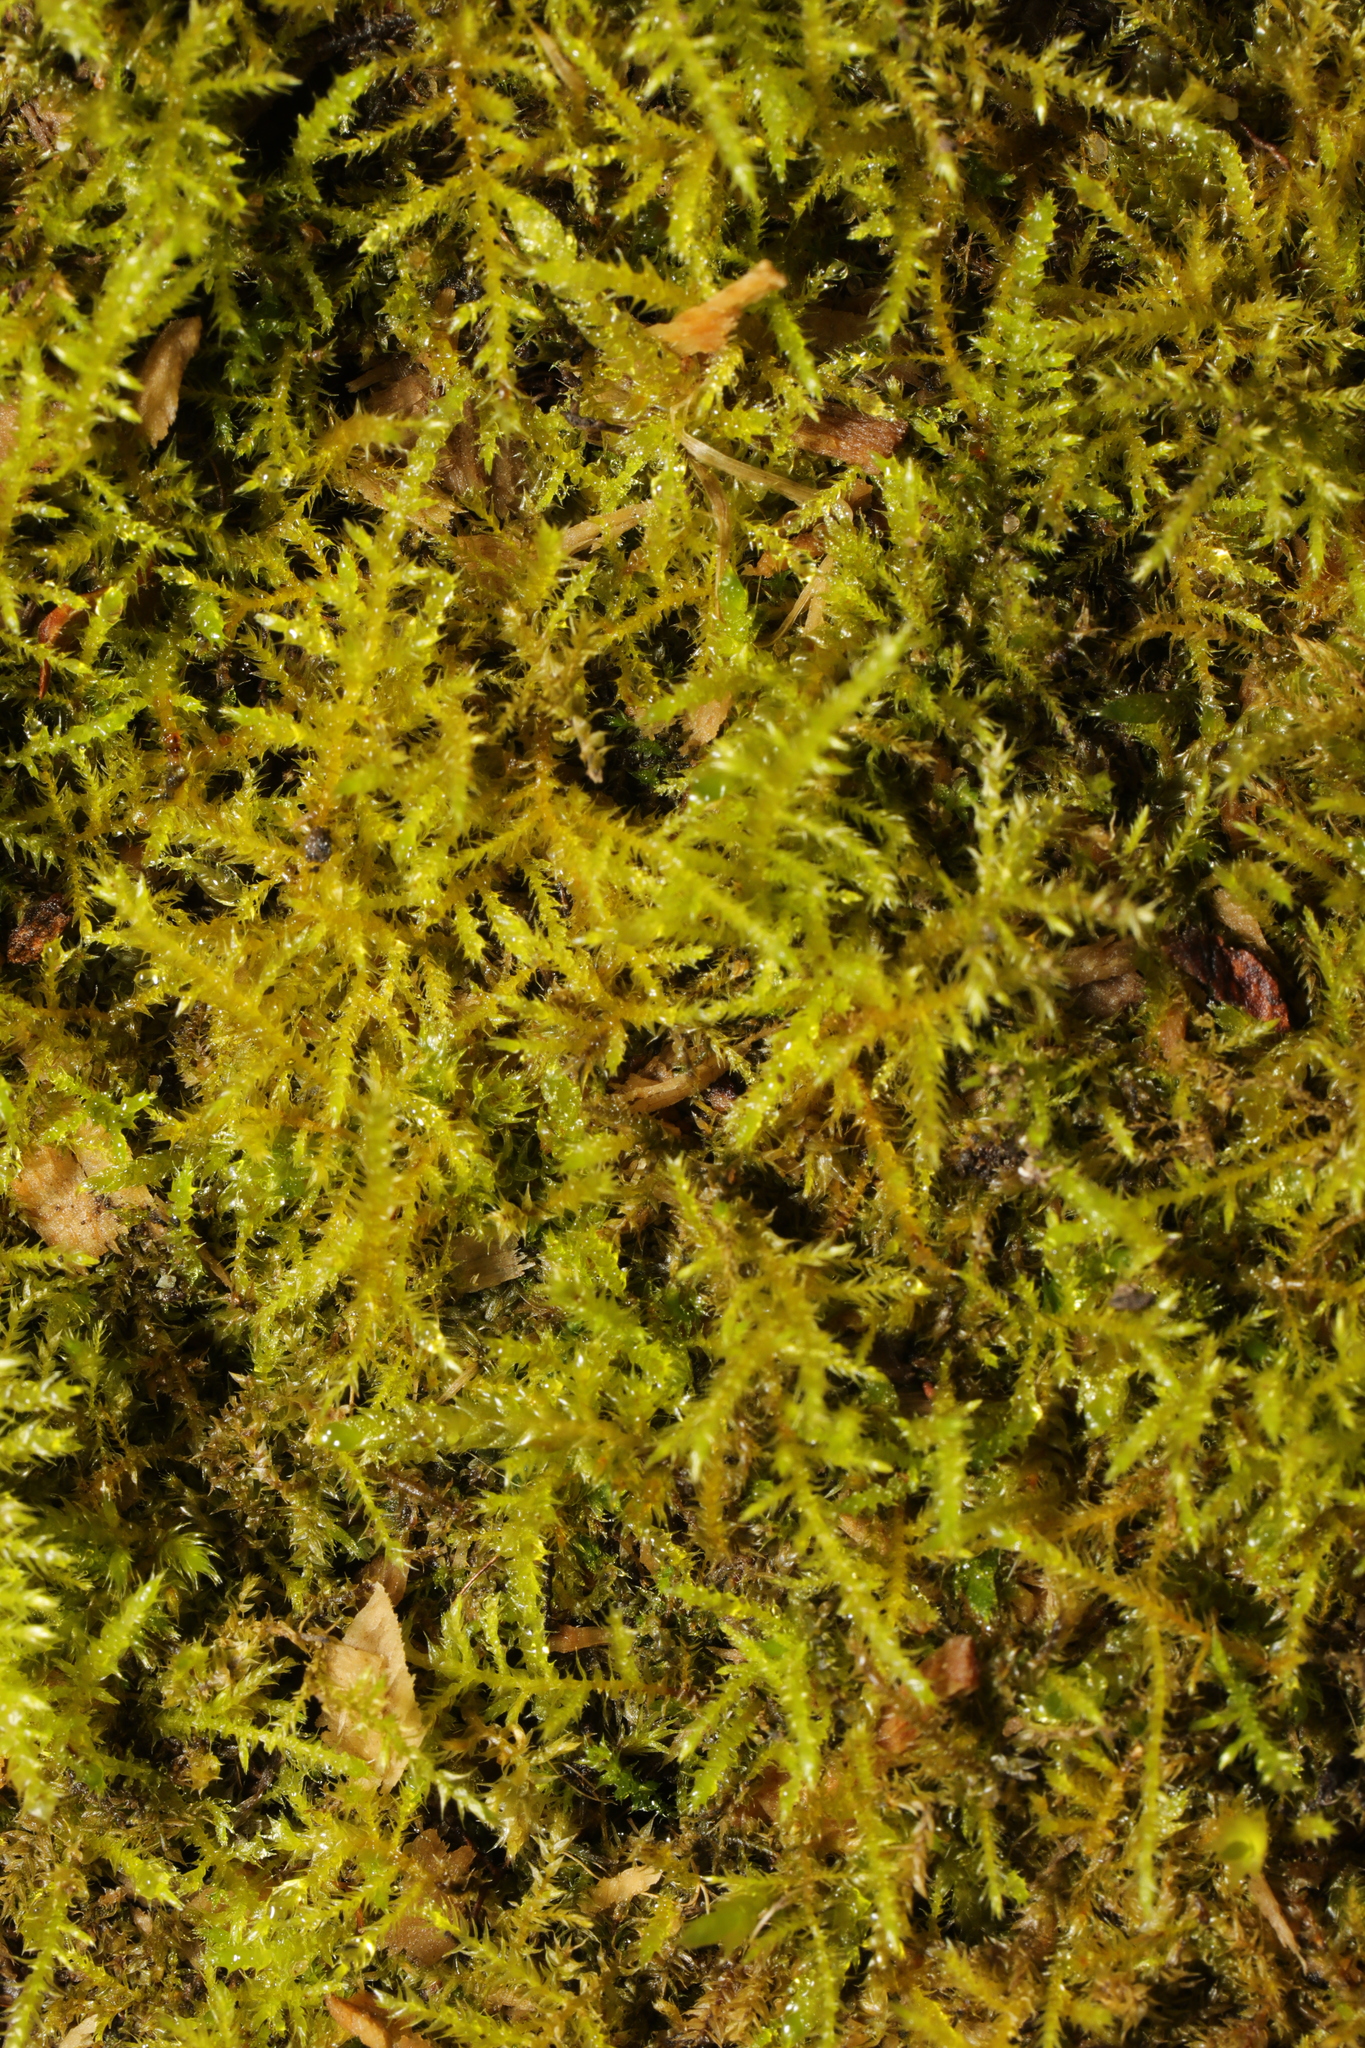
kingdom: Plantae
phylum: Bryophyta
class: Bryopsida
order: Hypnales
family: Brachytheciaceae
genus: Kindbergia
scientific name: Kindbergia praelonga
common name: Slender beaked moss
